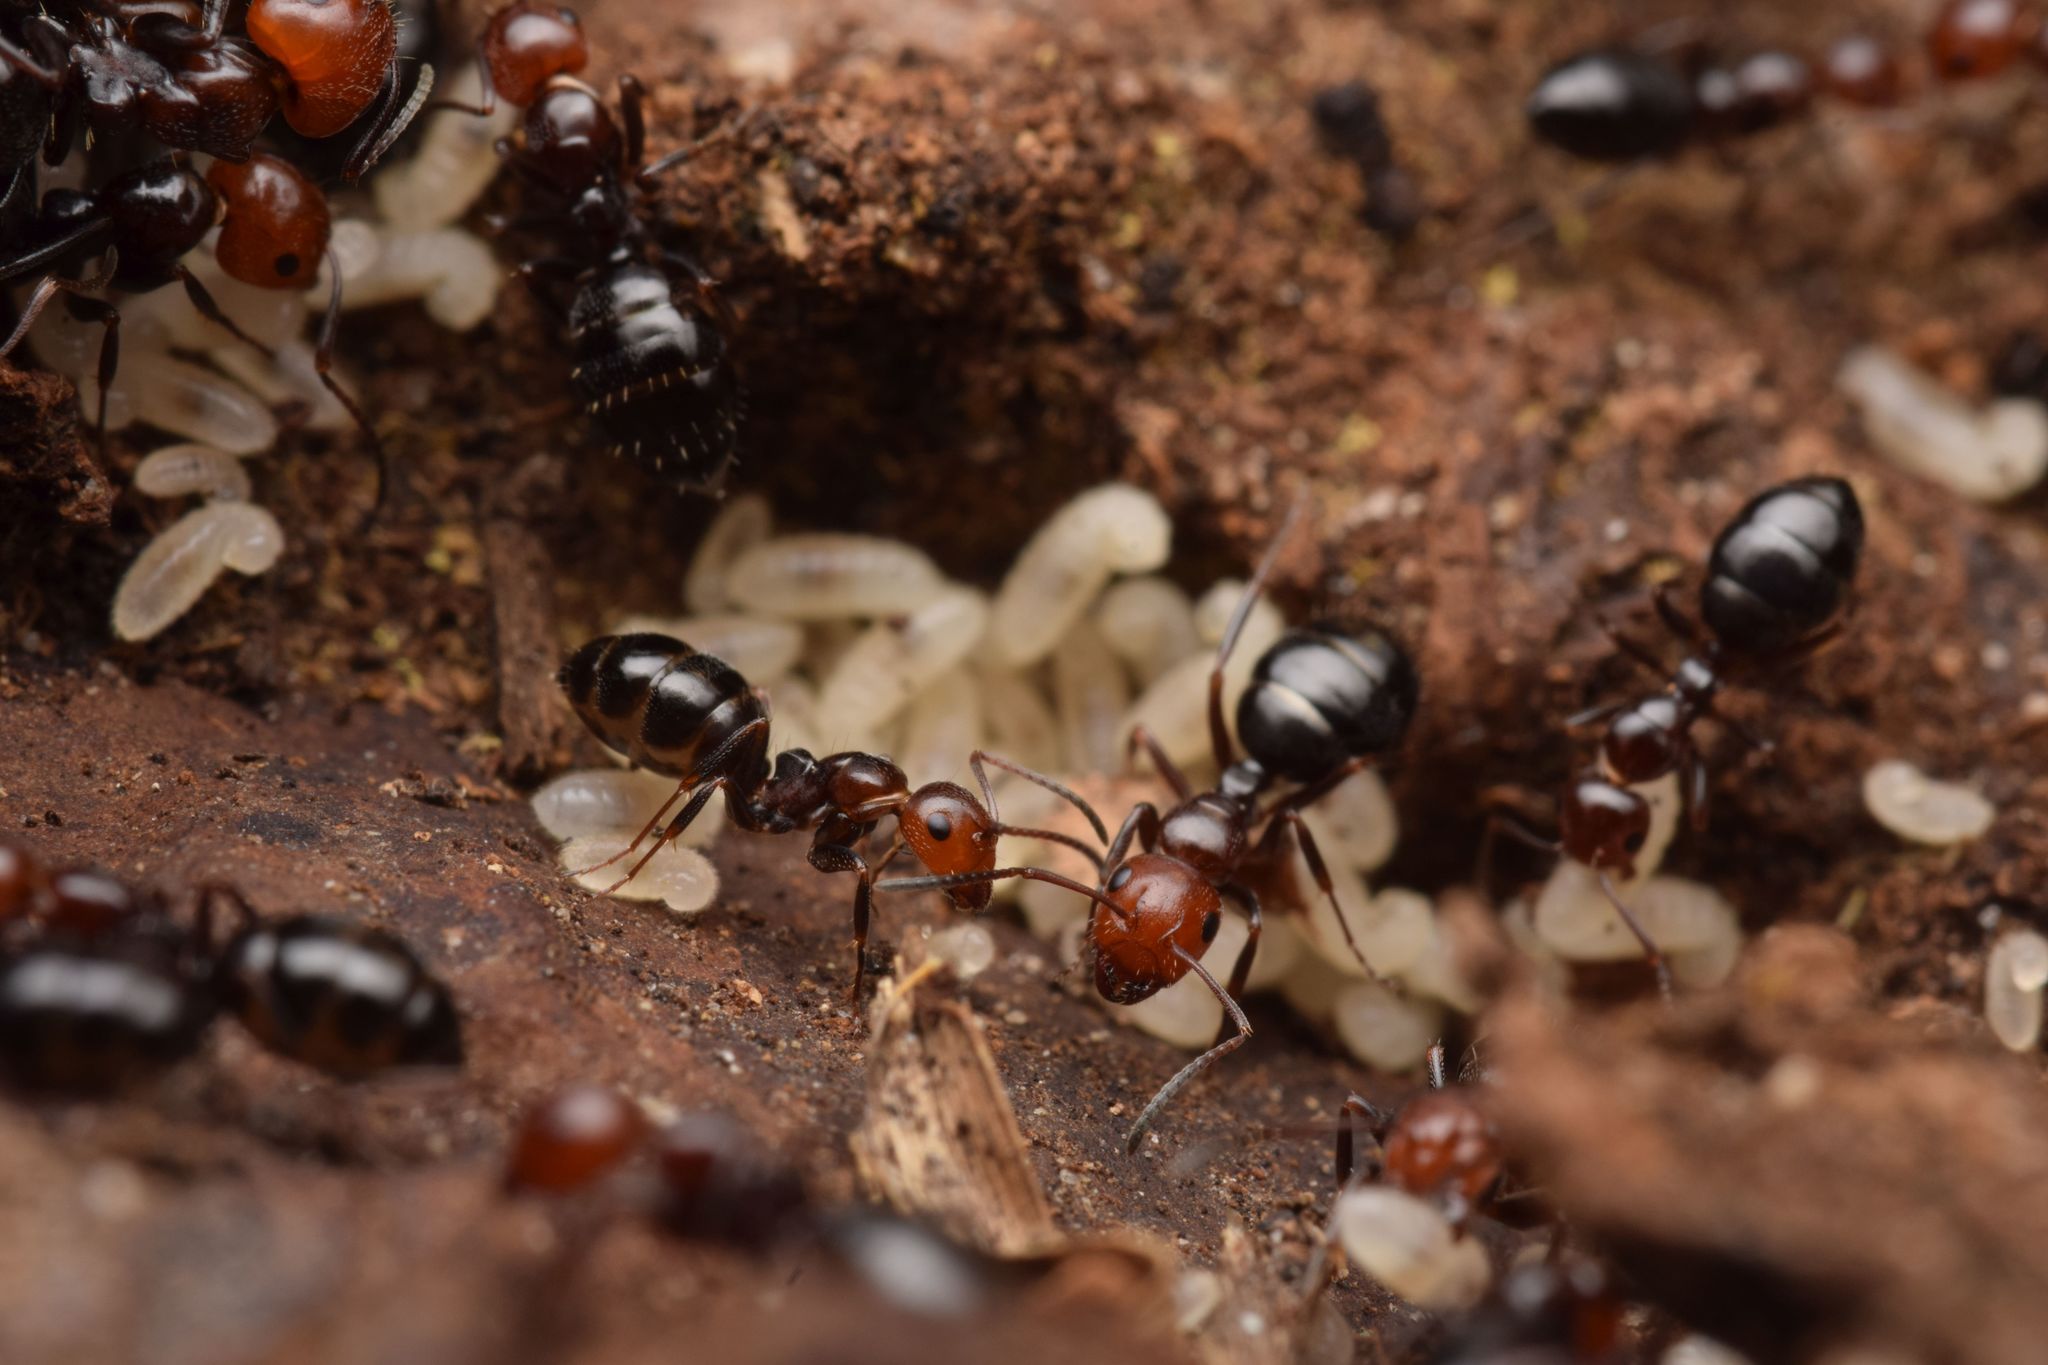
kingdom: Animalia
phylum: Arthropoda
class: Insecta
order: Hymenoptera
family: Formicidae
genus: Camponotus
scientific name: Camponotus lateralis
